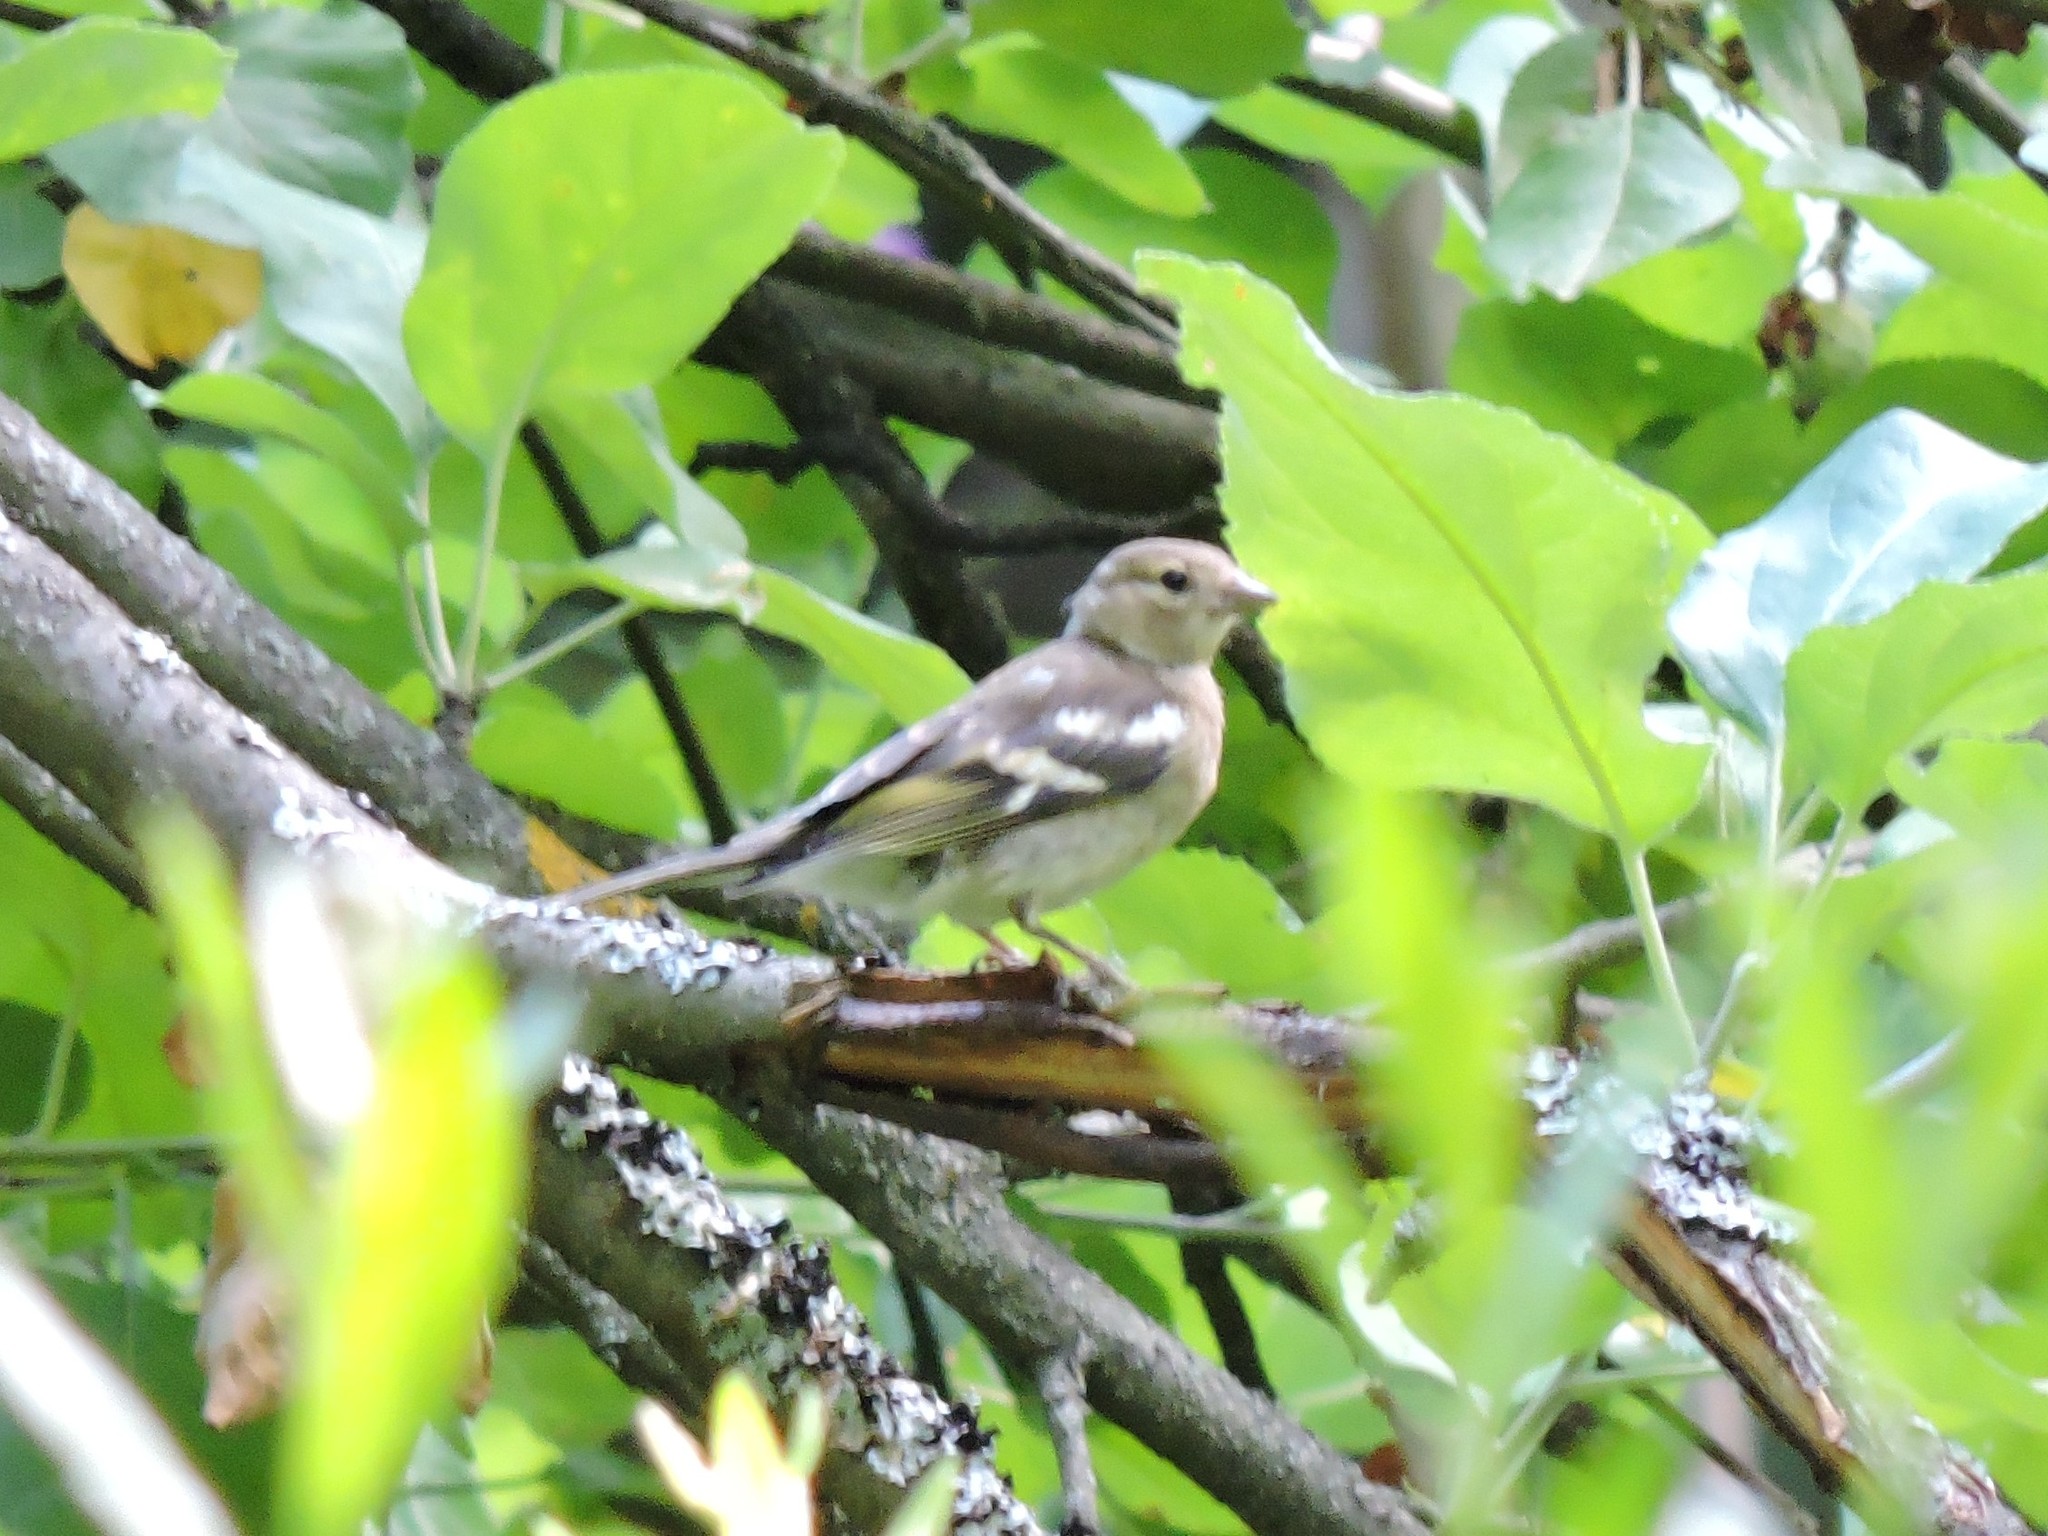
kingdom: Animalia
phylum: Chordata
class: Aves
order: Passeriformes
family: Fringillidae
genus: Fringilla
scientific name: Fringilla coelebs
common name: Common chaffinch
